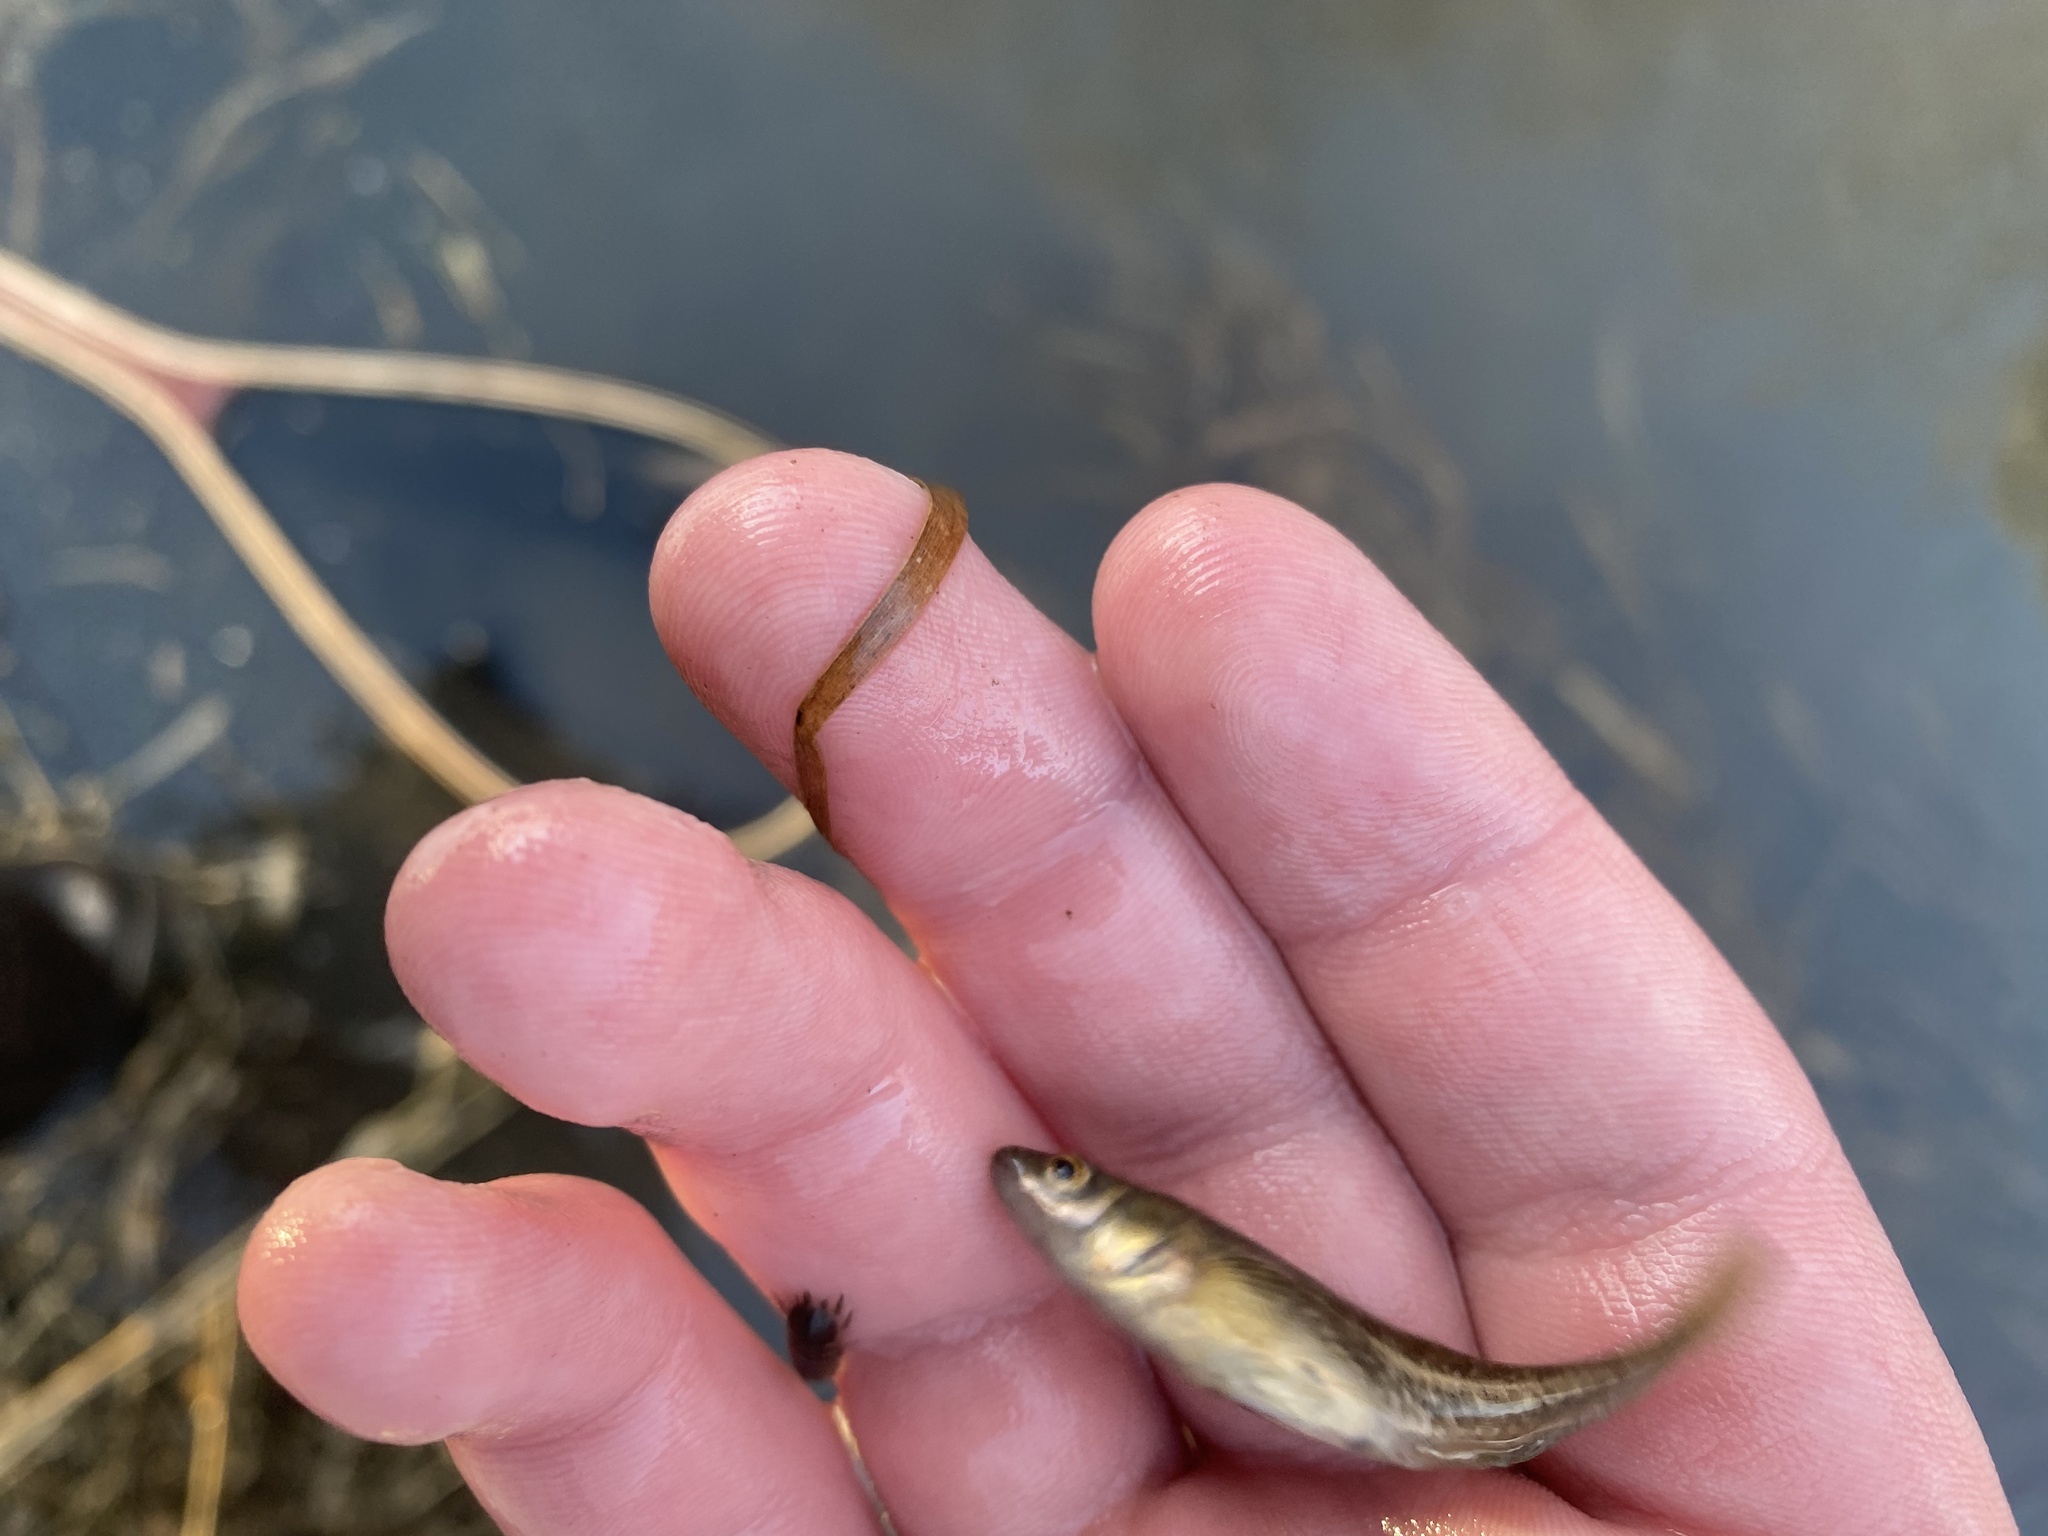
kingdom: Animalia
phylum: Chordata
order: Gasterosteiformes
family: Gasterosteidae
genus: Culaea
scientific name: Culaea inconstans
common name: Brook stickleback
